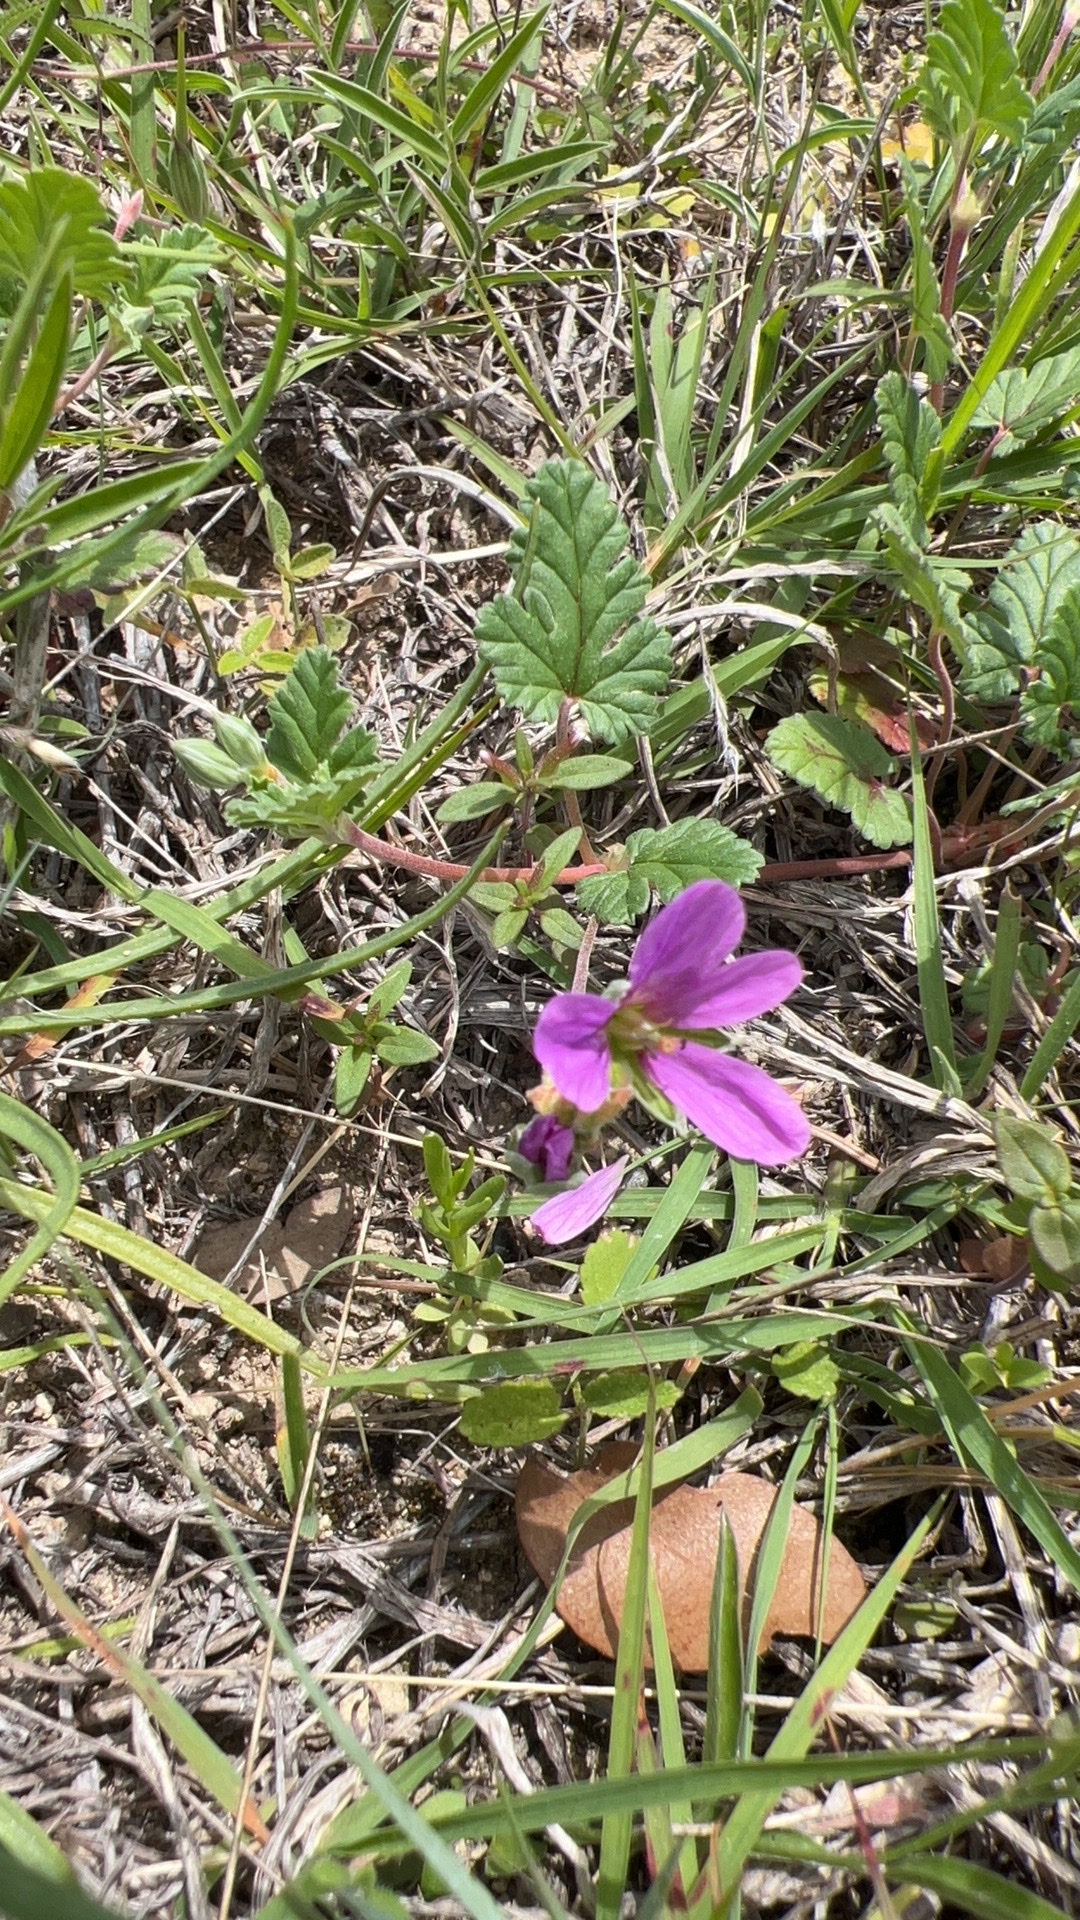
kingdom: Plantae
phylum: Tracheophyta
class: Magnoliopsida
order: Geraniales
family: Geraniaceae
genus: Erodium
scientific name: Erodium texanum
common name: Texas stork's-bill
